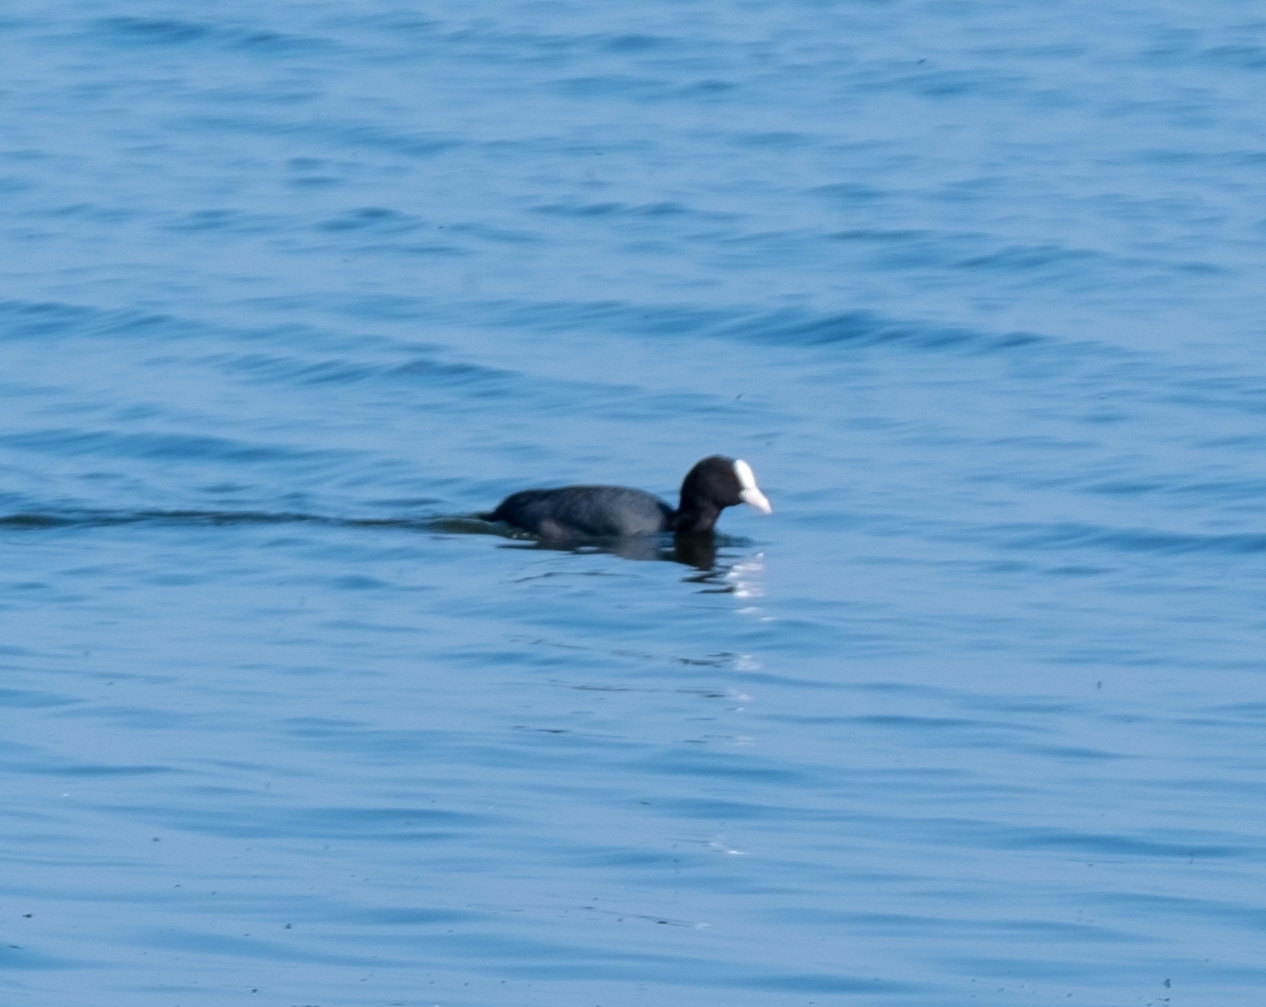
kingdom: Animalia
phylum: Chordata
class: Aves
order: Gruiformes
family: Rallidae
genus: Fulica
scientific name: Fulica atra
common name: Eurasian coot
